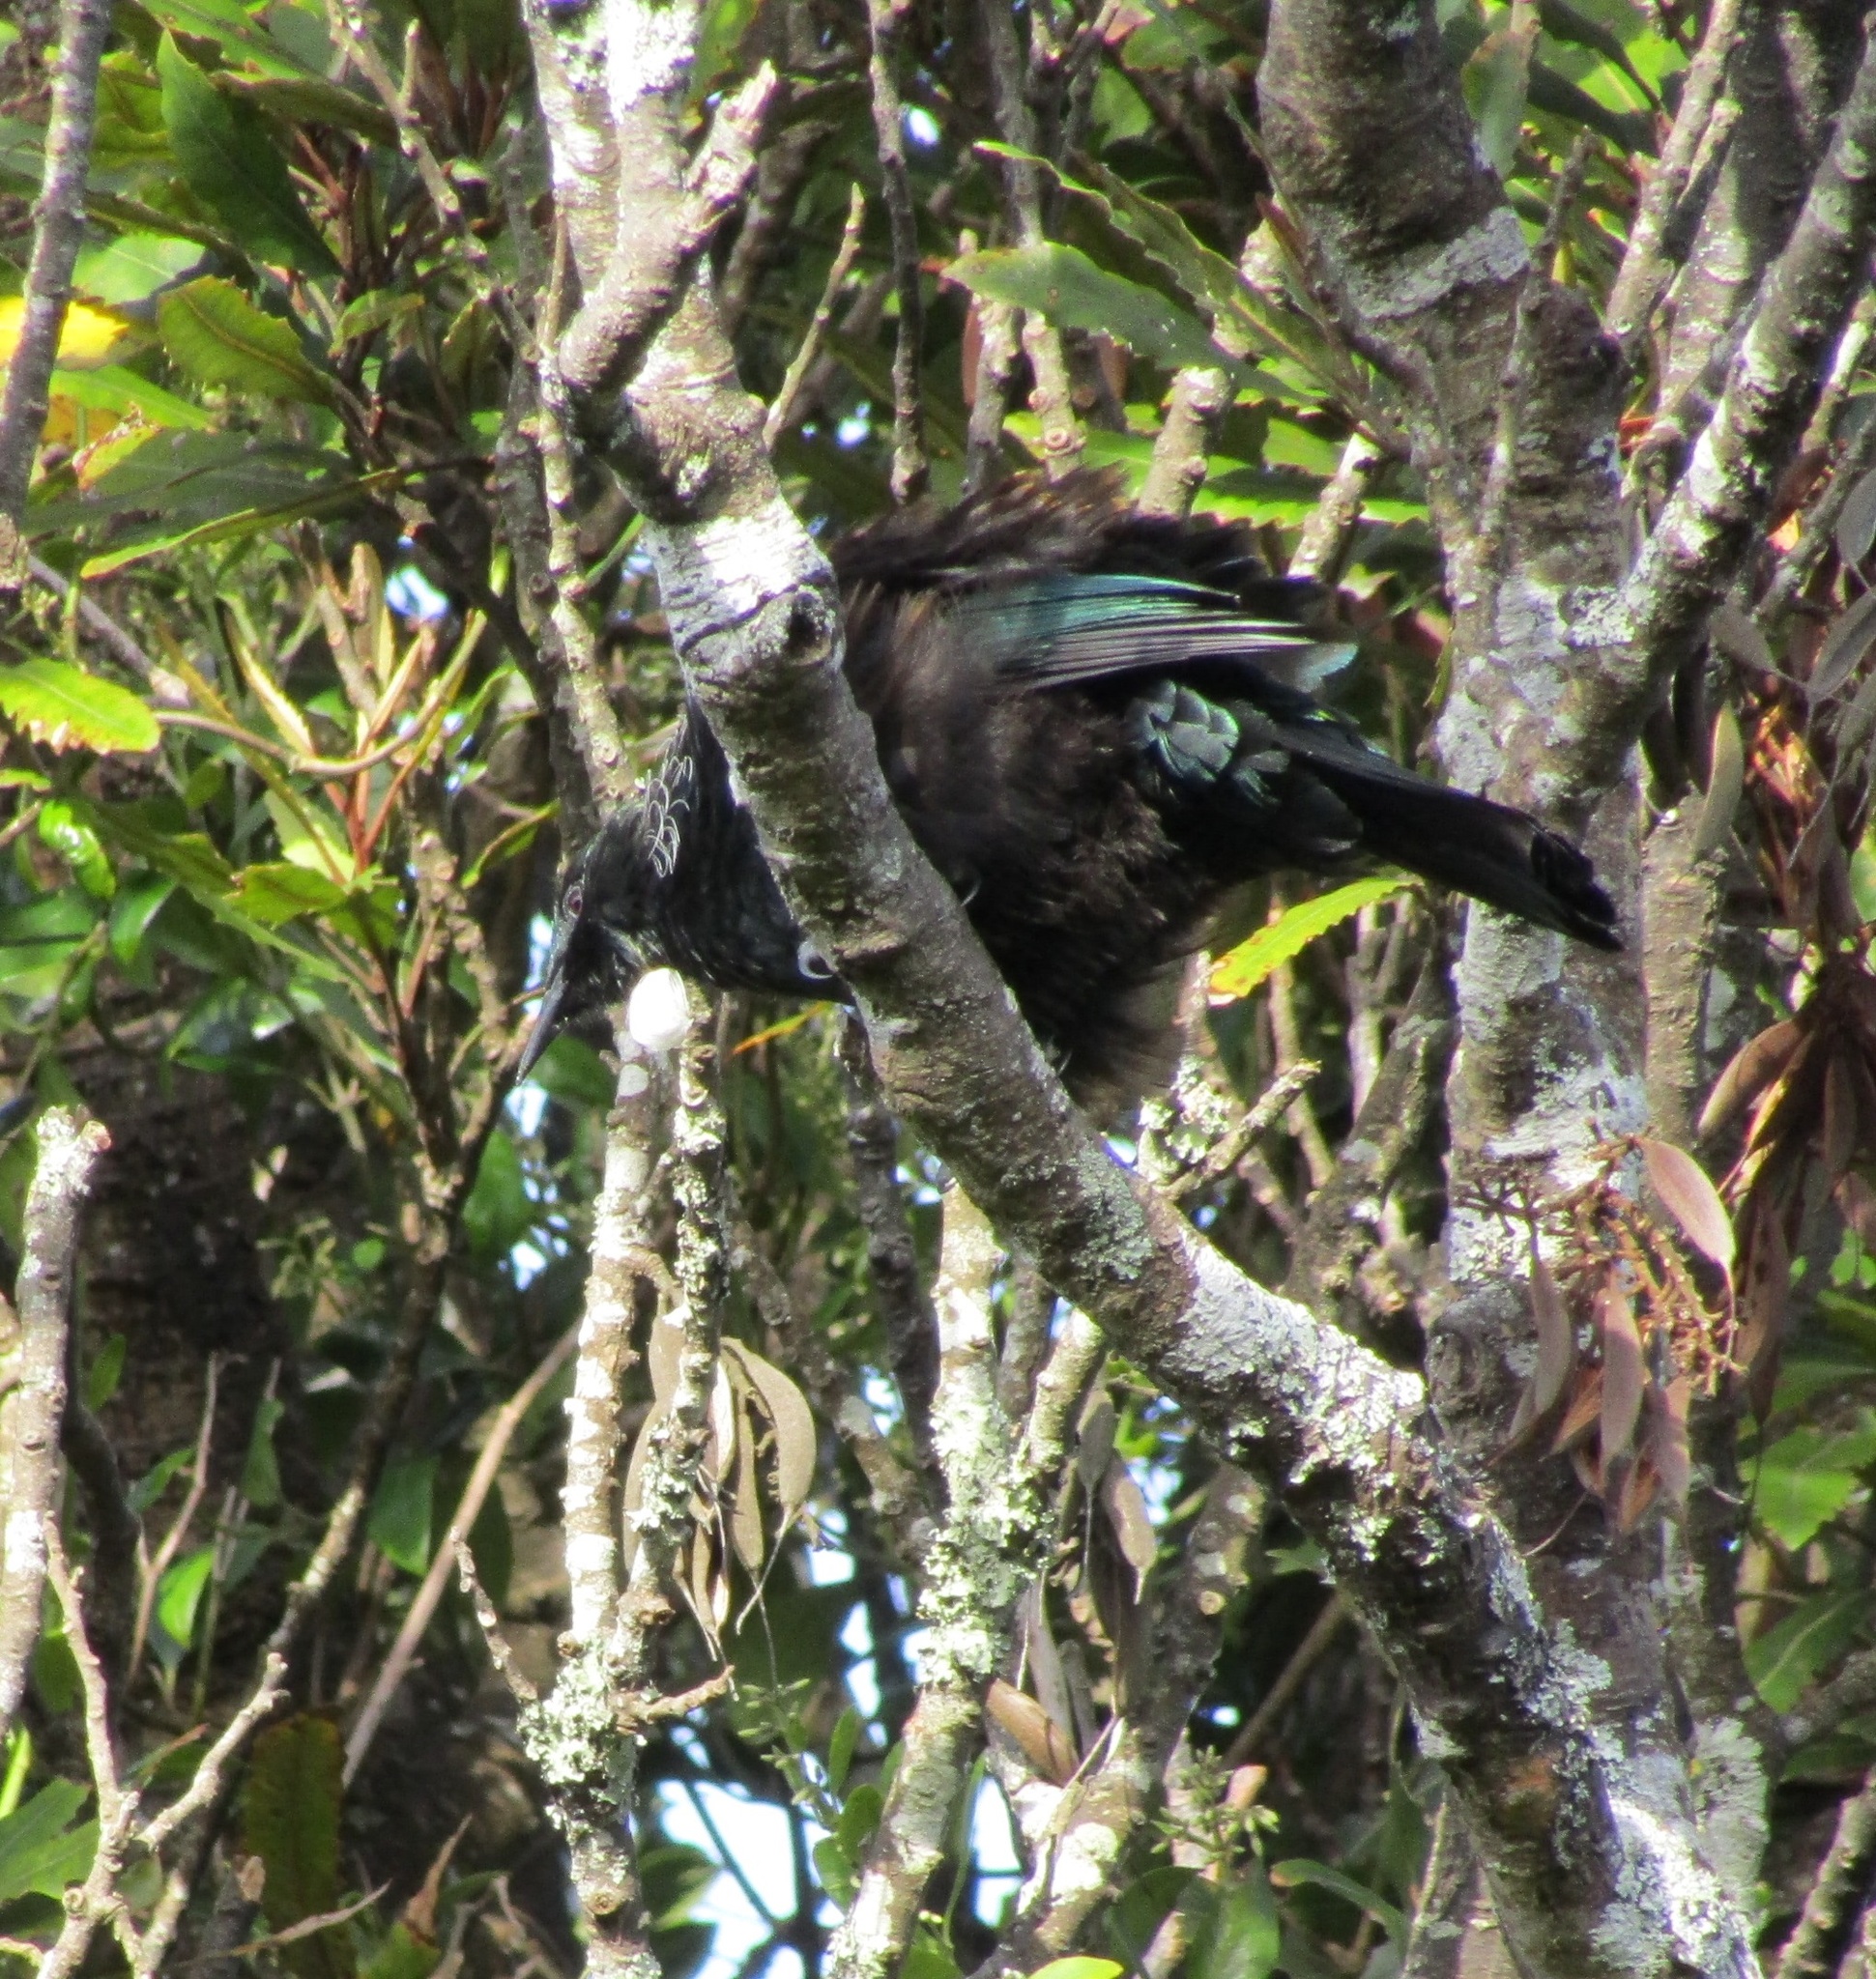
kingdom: Animalia
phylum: Chordata
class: Aves
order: Passeriformes
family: Meliphagidae
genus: Prosthemadera
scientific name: Prosthemadera novaeseelandiae
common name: Tui
